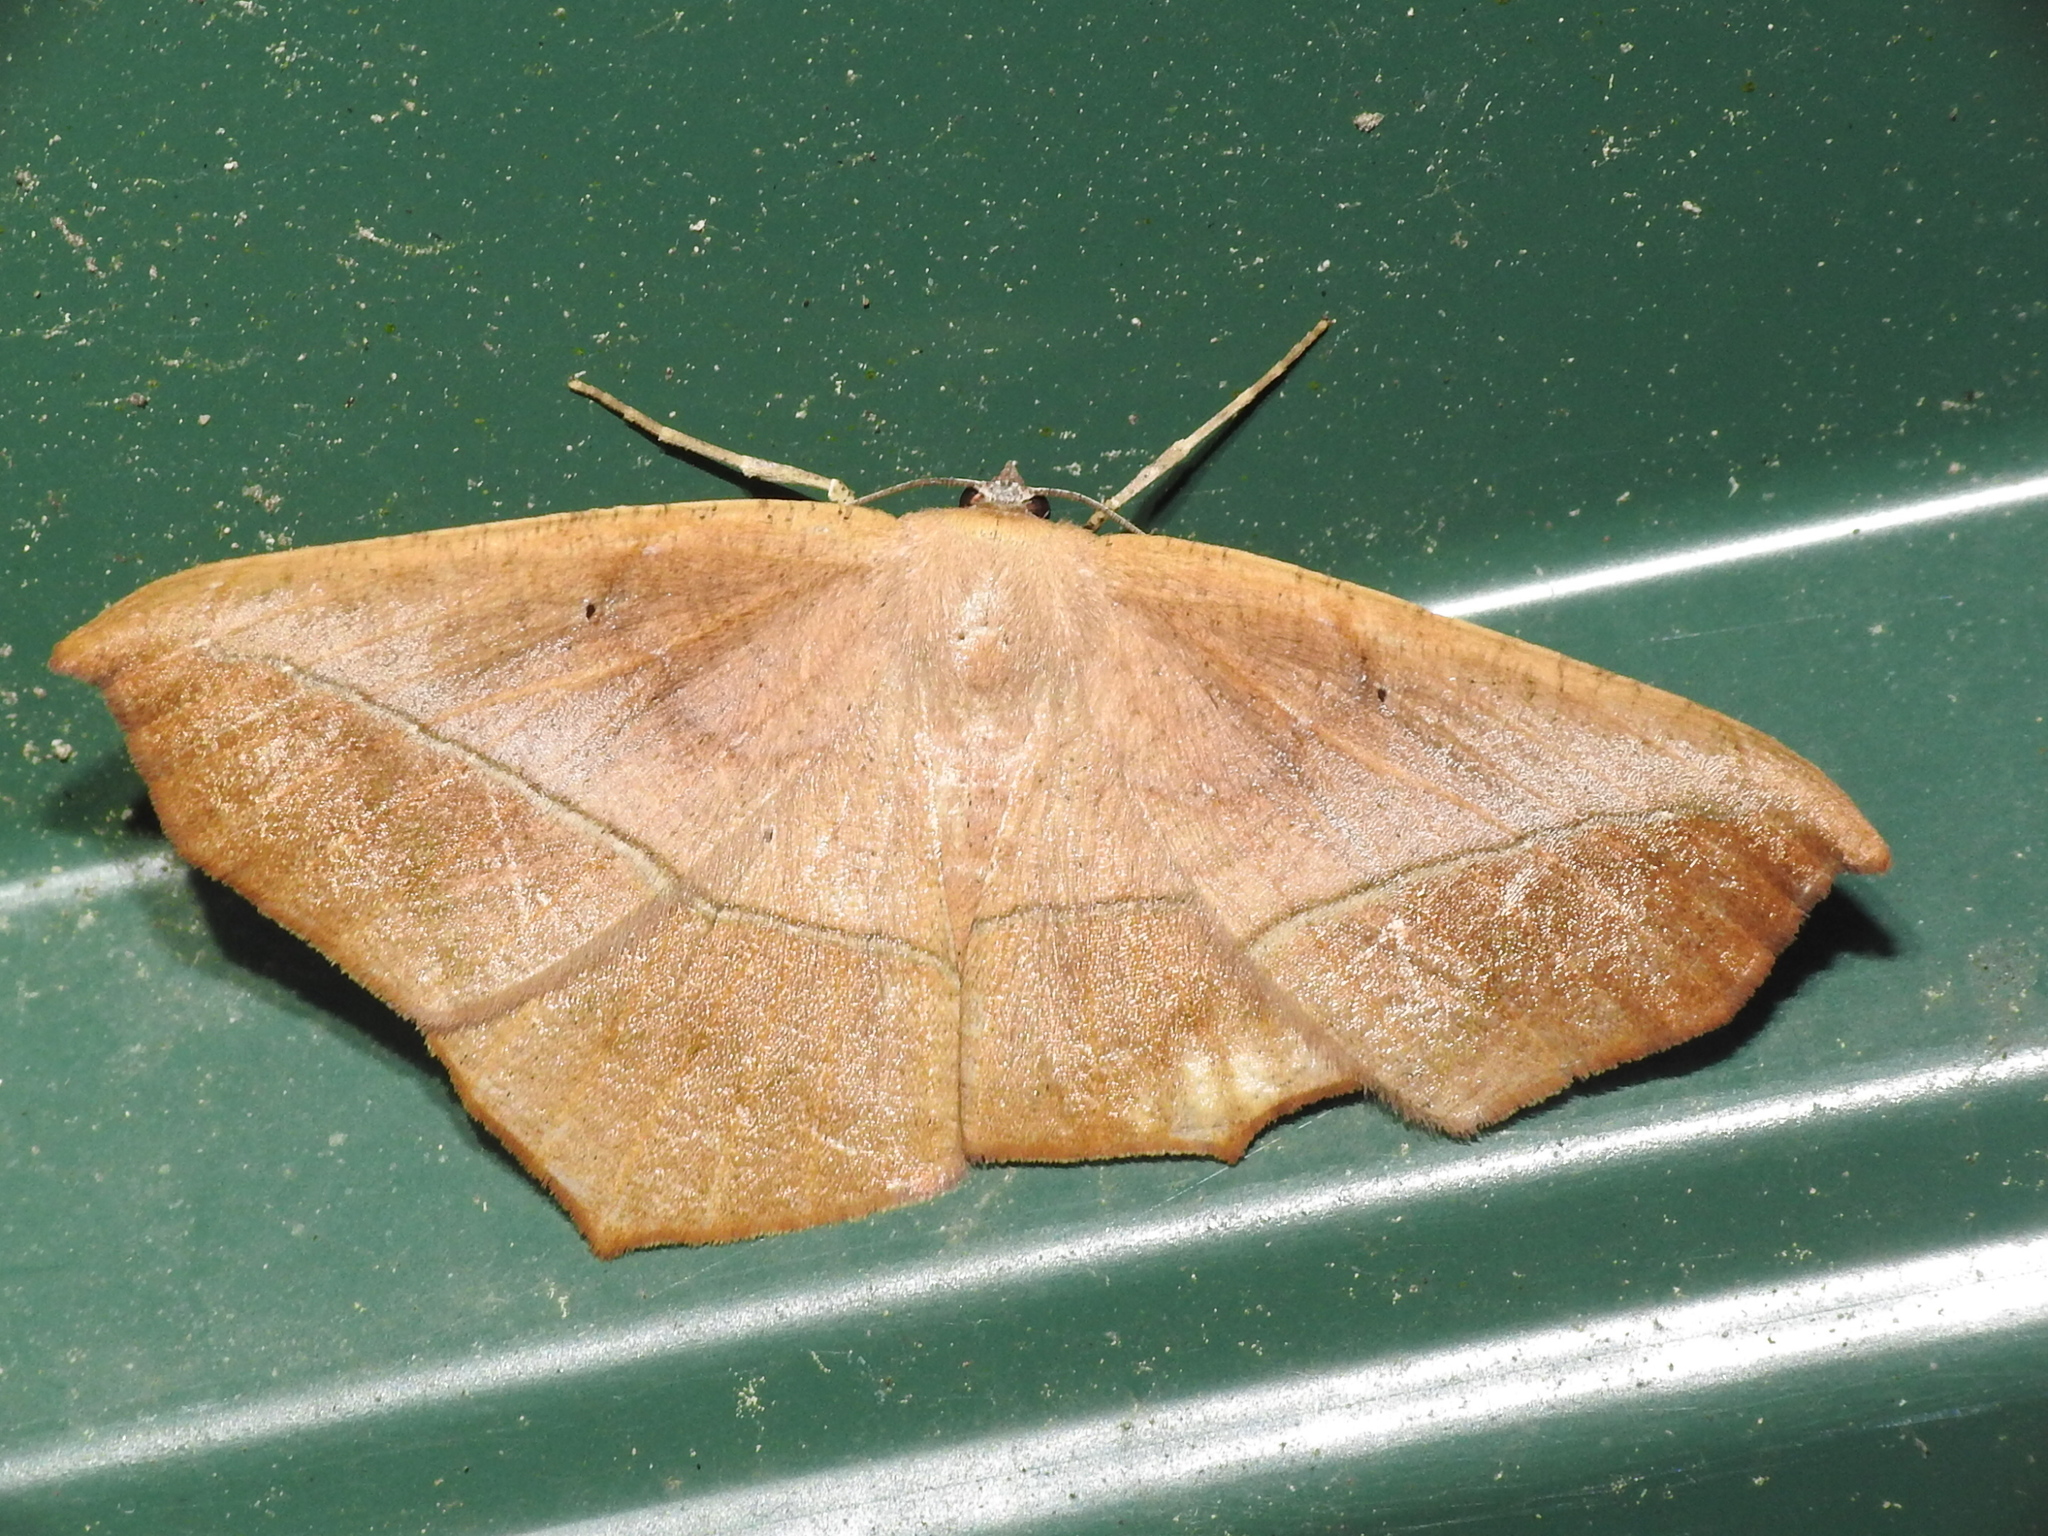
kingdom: Animalia
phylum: Arthropoda
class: Insecta
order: Lepidoptera
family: Geometridae
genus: Prochoerodes
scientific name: Prochoerodes lineola
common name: Large maple spanworm
